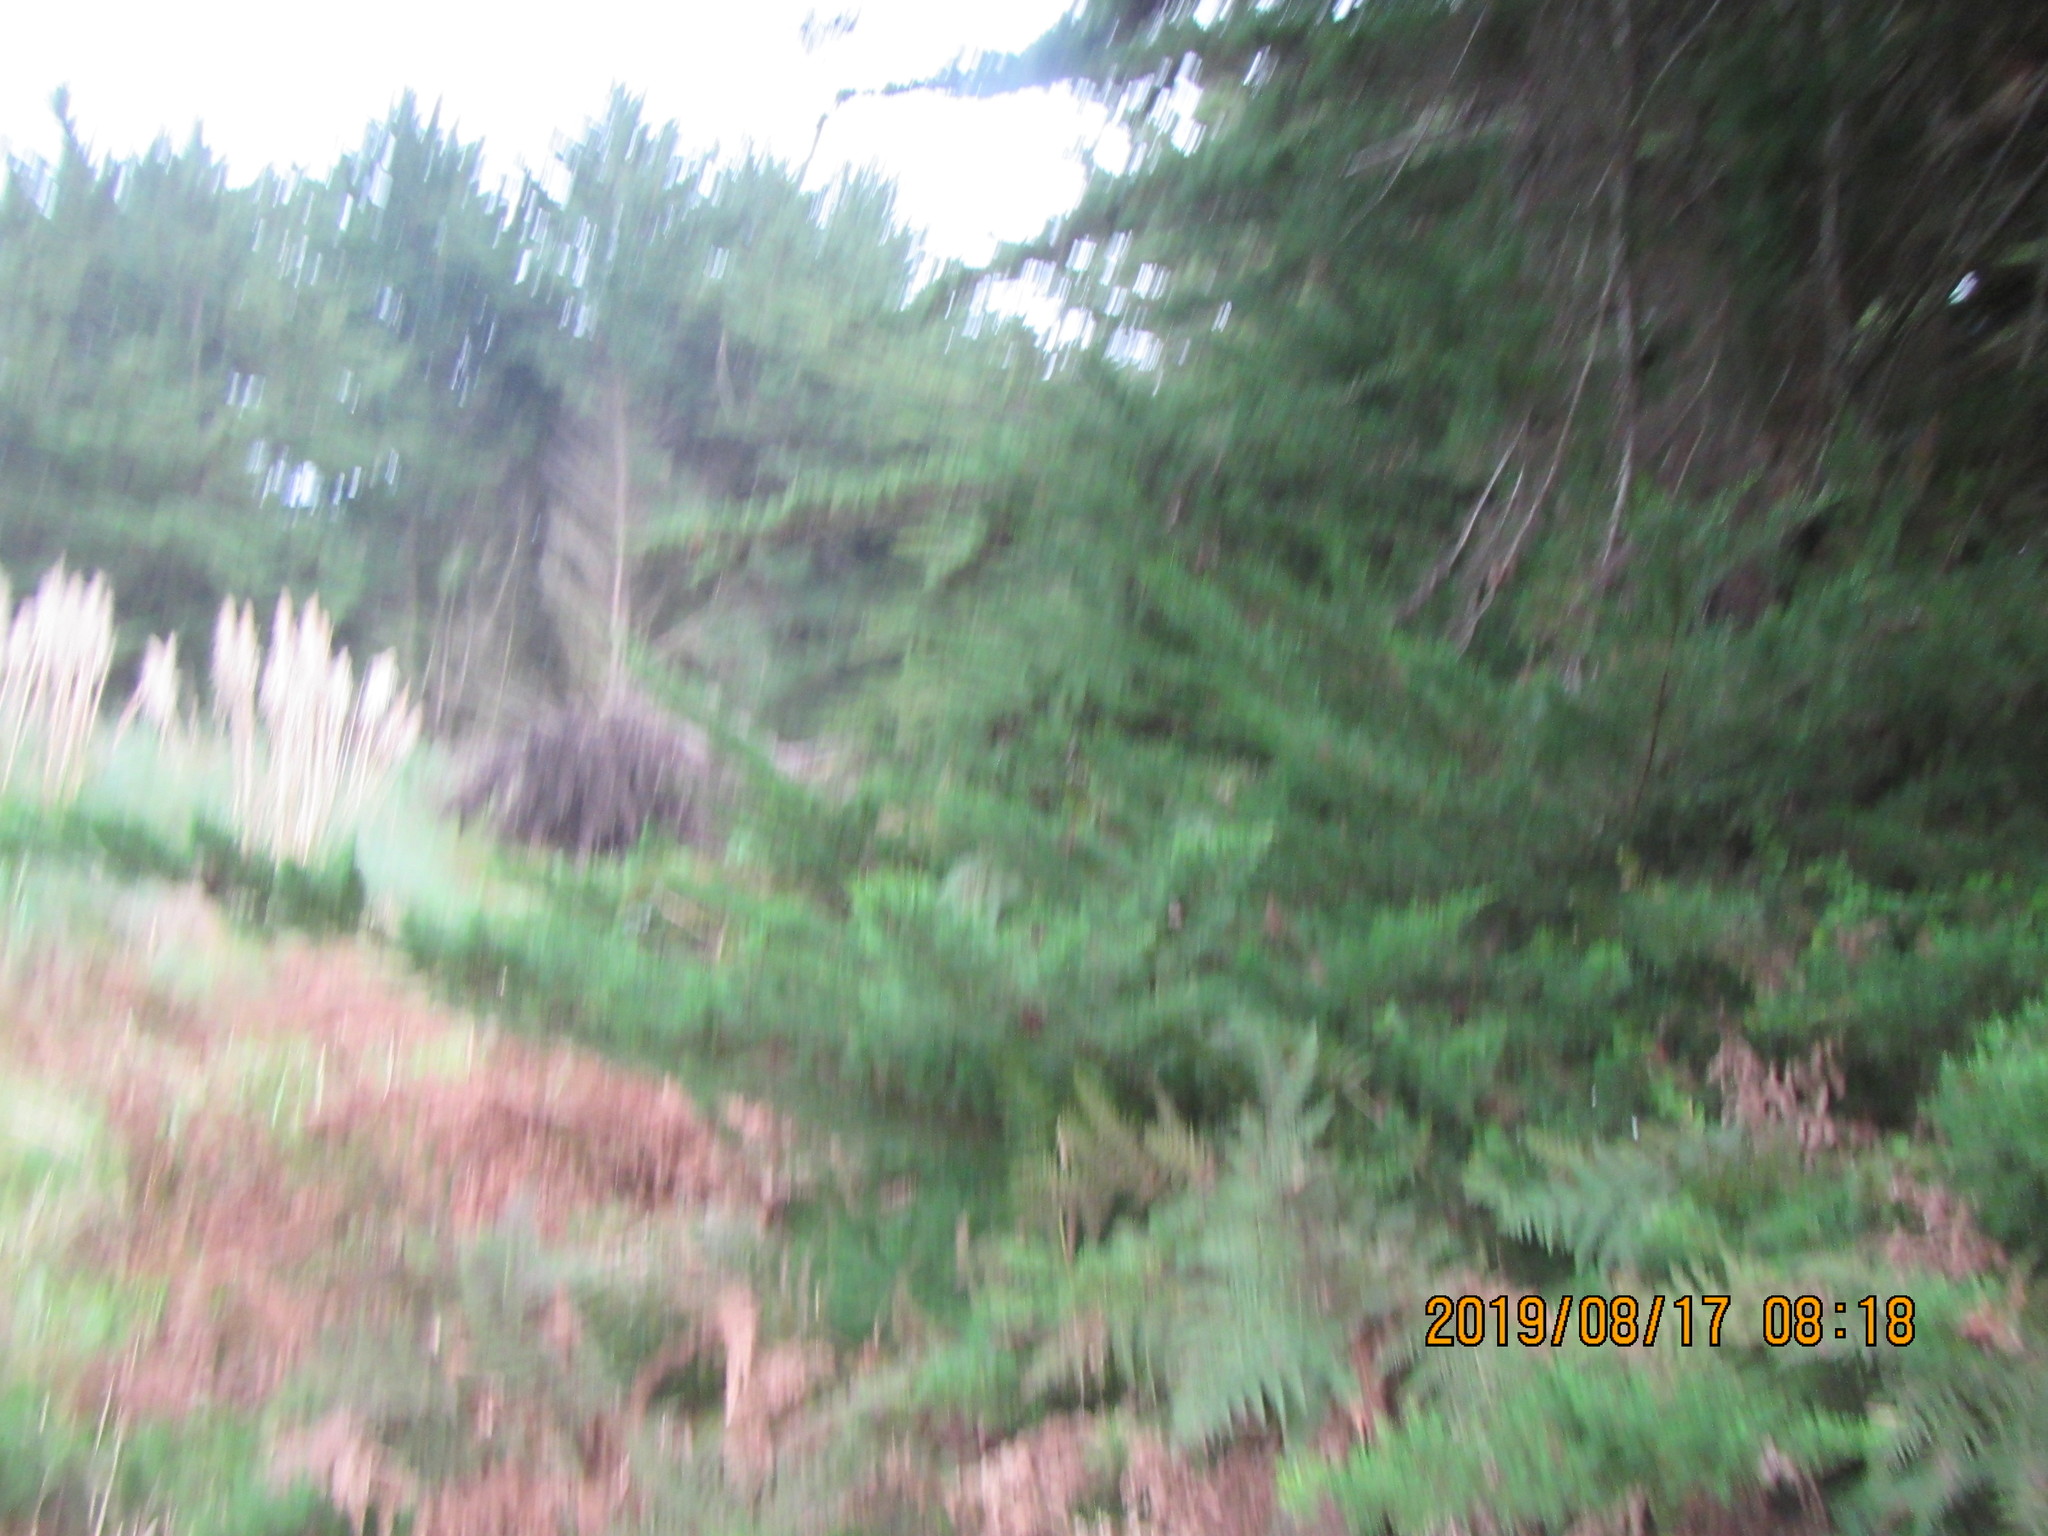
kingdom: Plantae
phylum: Tracheophyta
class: Pinopsida
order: Pinales
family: Cupressaceae
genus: Cupressus
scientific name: Cupressus macrocarpa
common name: Monterey cypress
